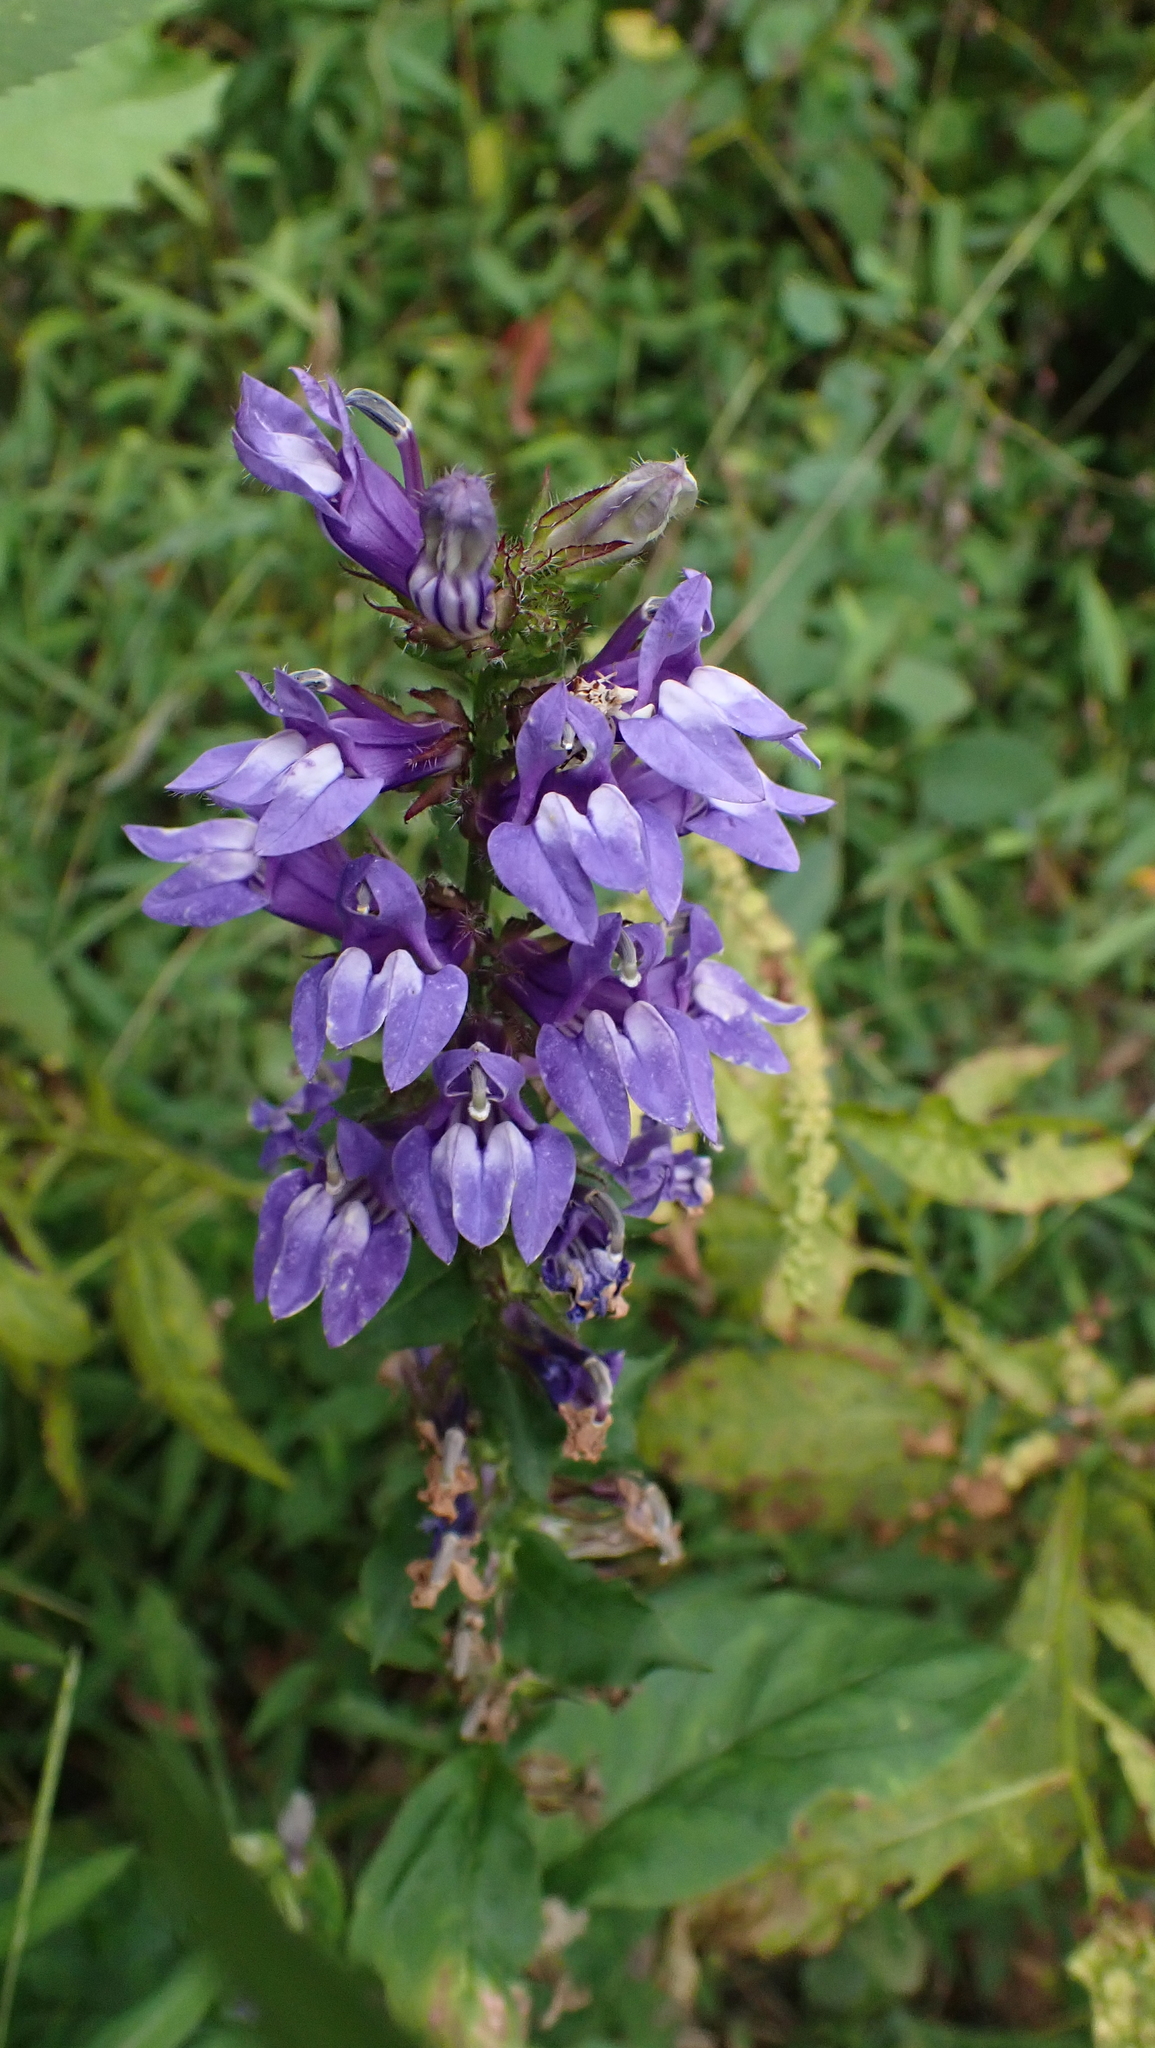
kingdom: Plantae
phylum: Tracheophyta
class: Magnoliopsida
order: Asterales
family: Campanulaceae
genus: Lobelia
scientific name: Lobelia siphilitica
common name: Great lobelia
